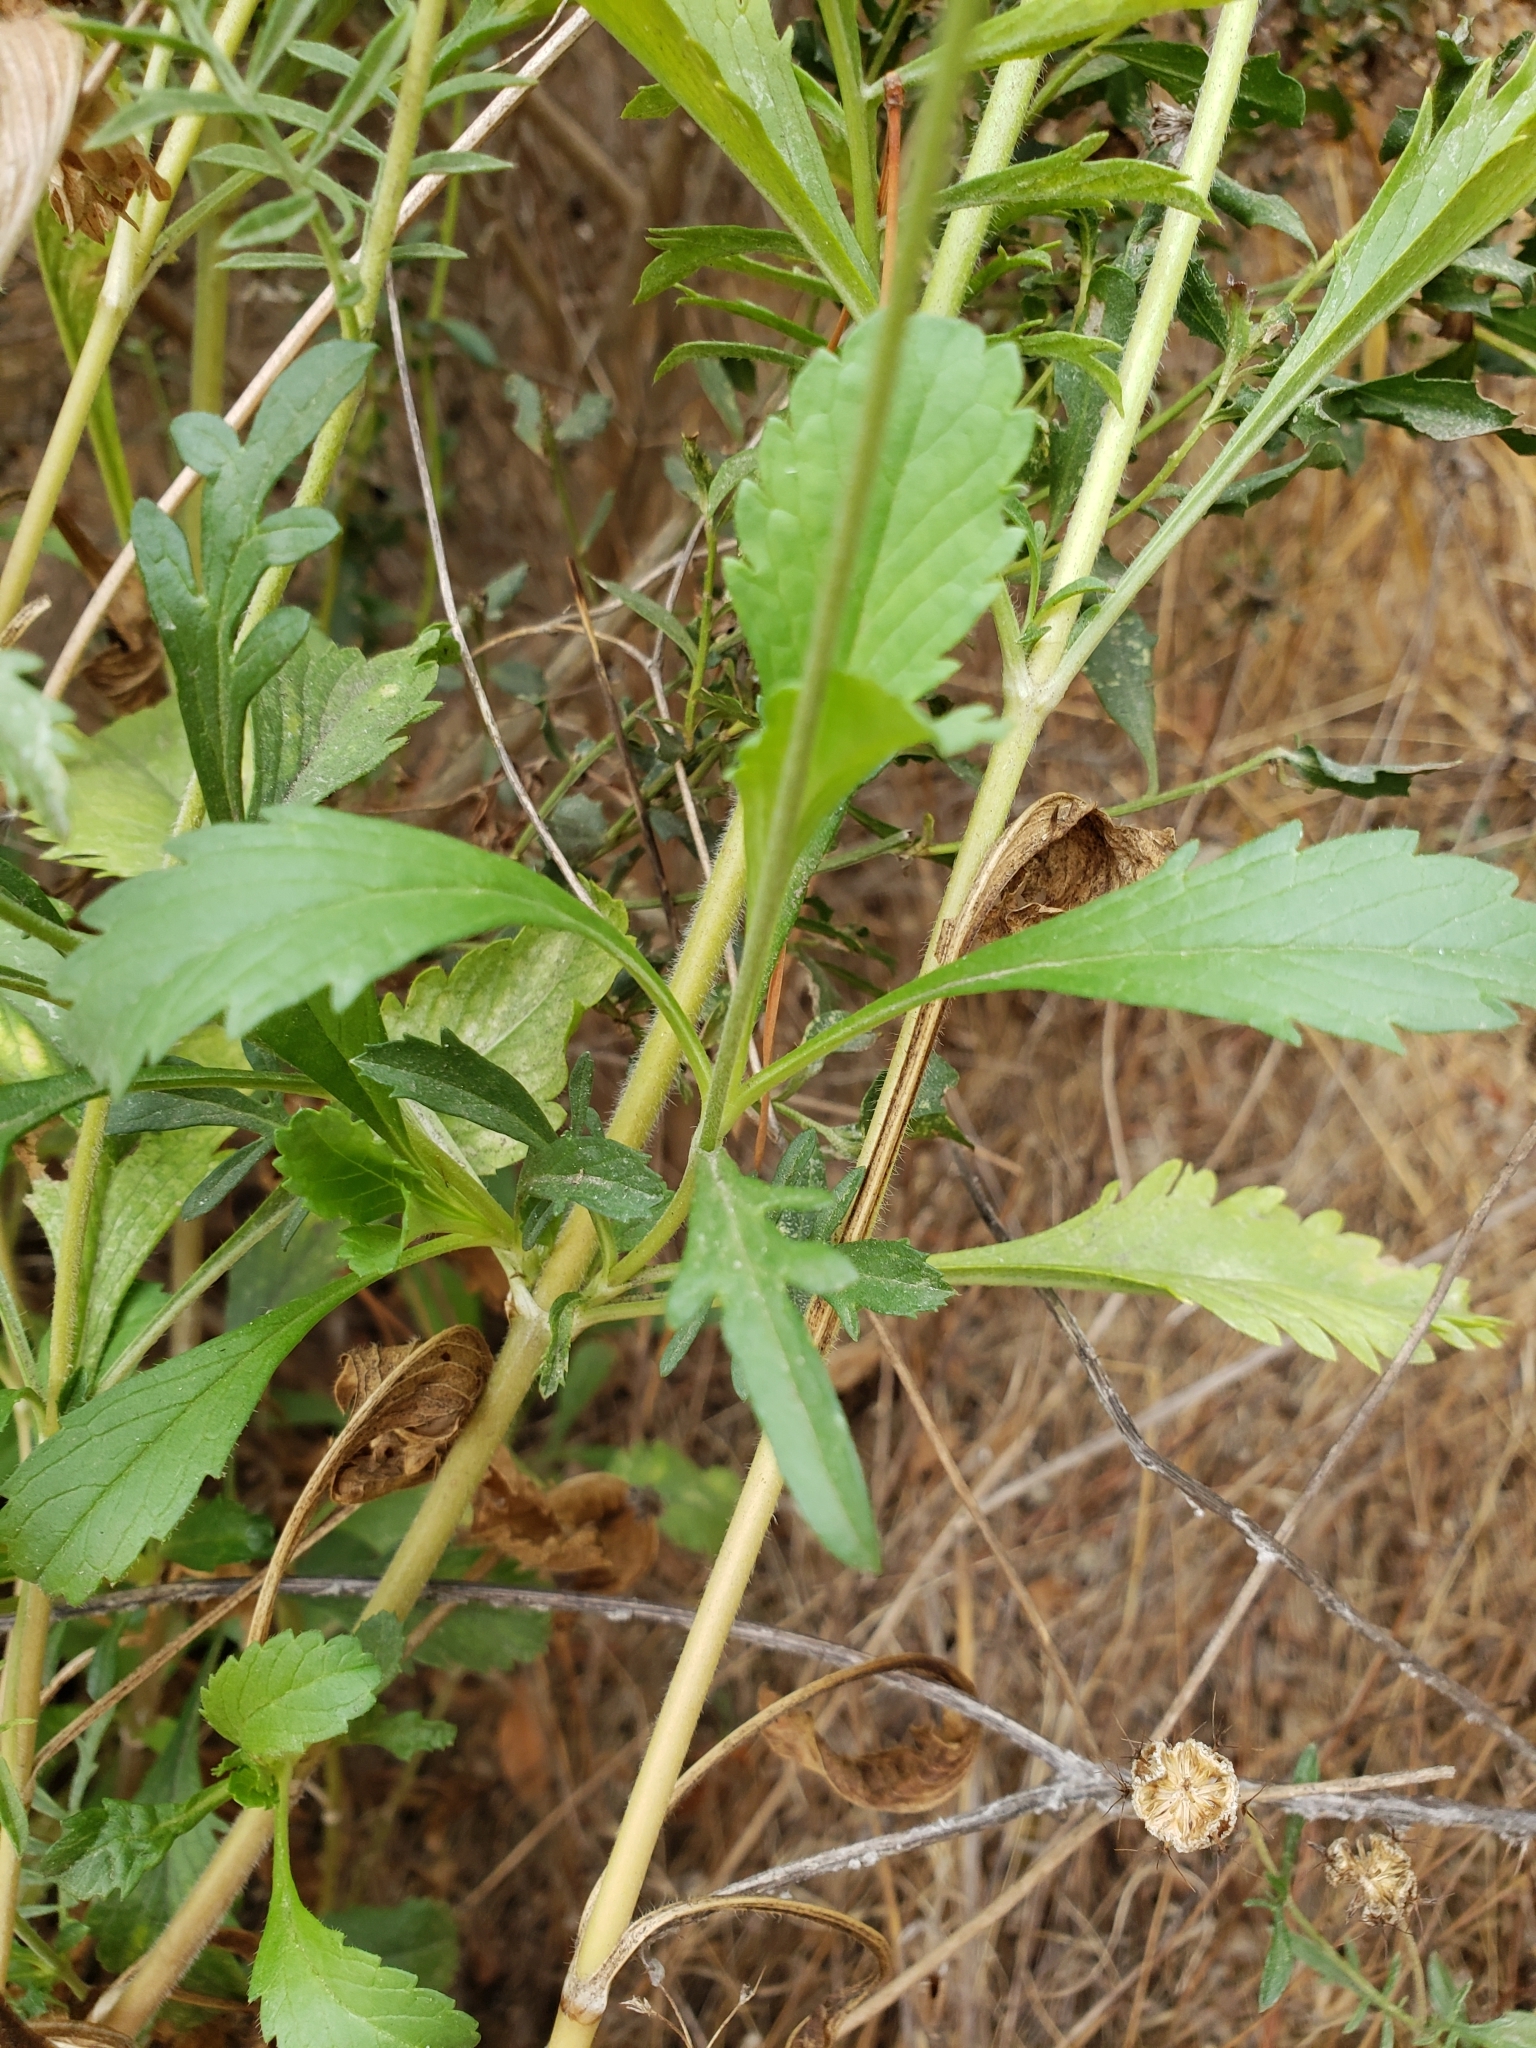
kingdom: Plantae
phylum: Tracheophyta
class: Magnoliopsida
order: Dipsacales
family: Caprifoliaceae
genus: Sixalix
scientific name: Sixalix atropurpurea
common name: Sweet scabious
